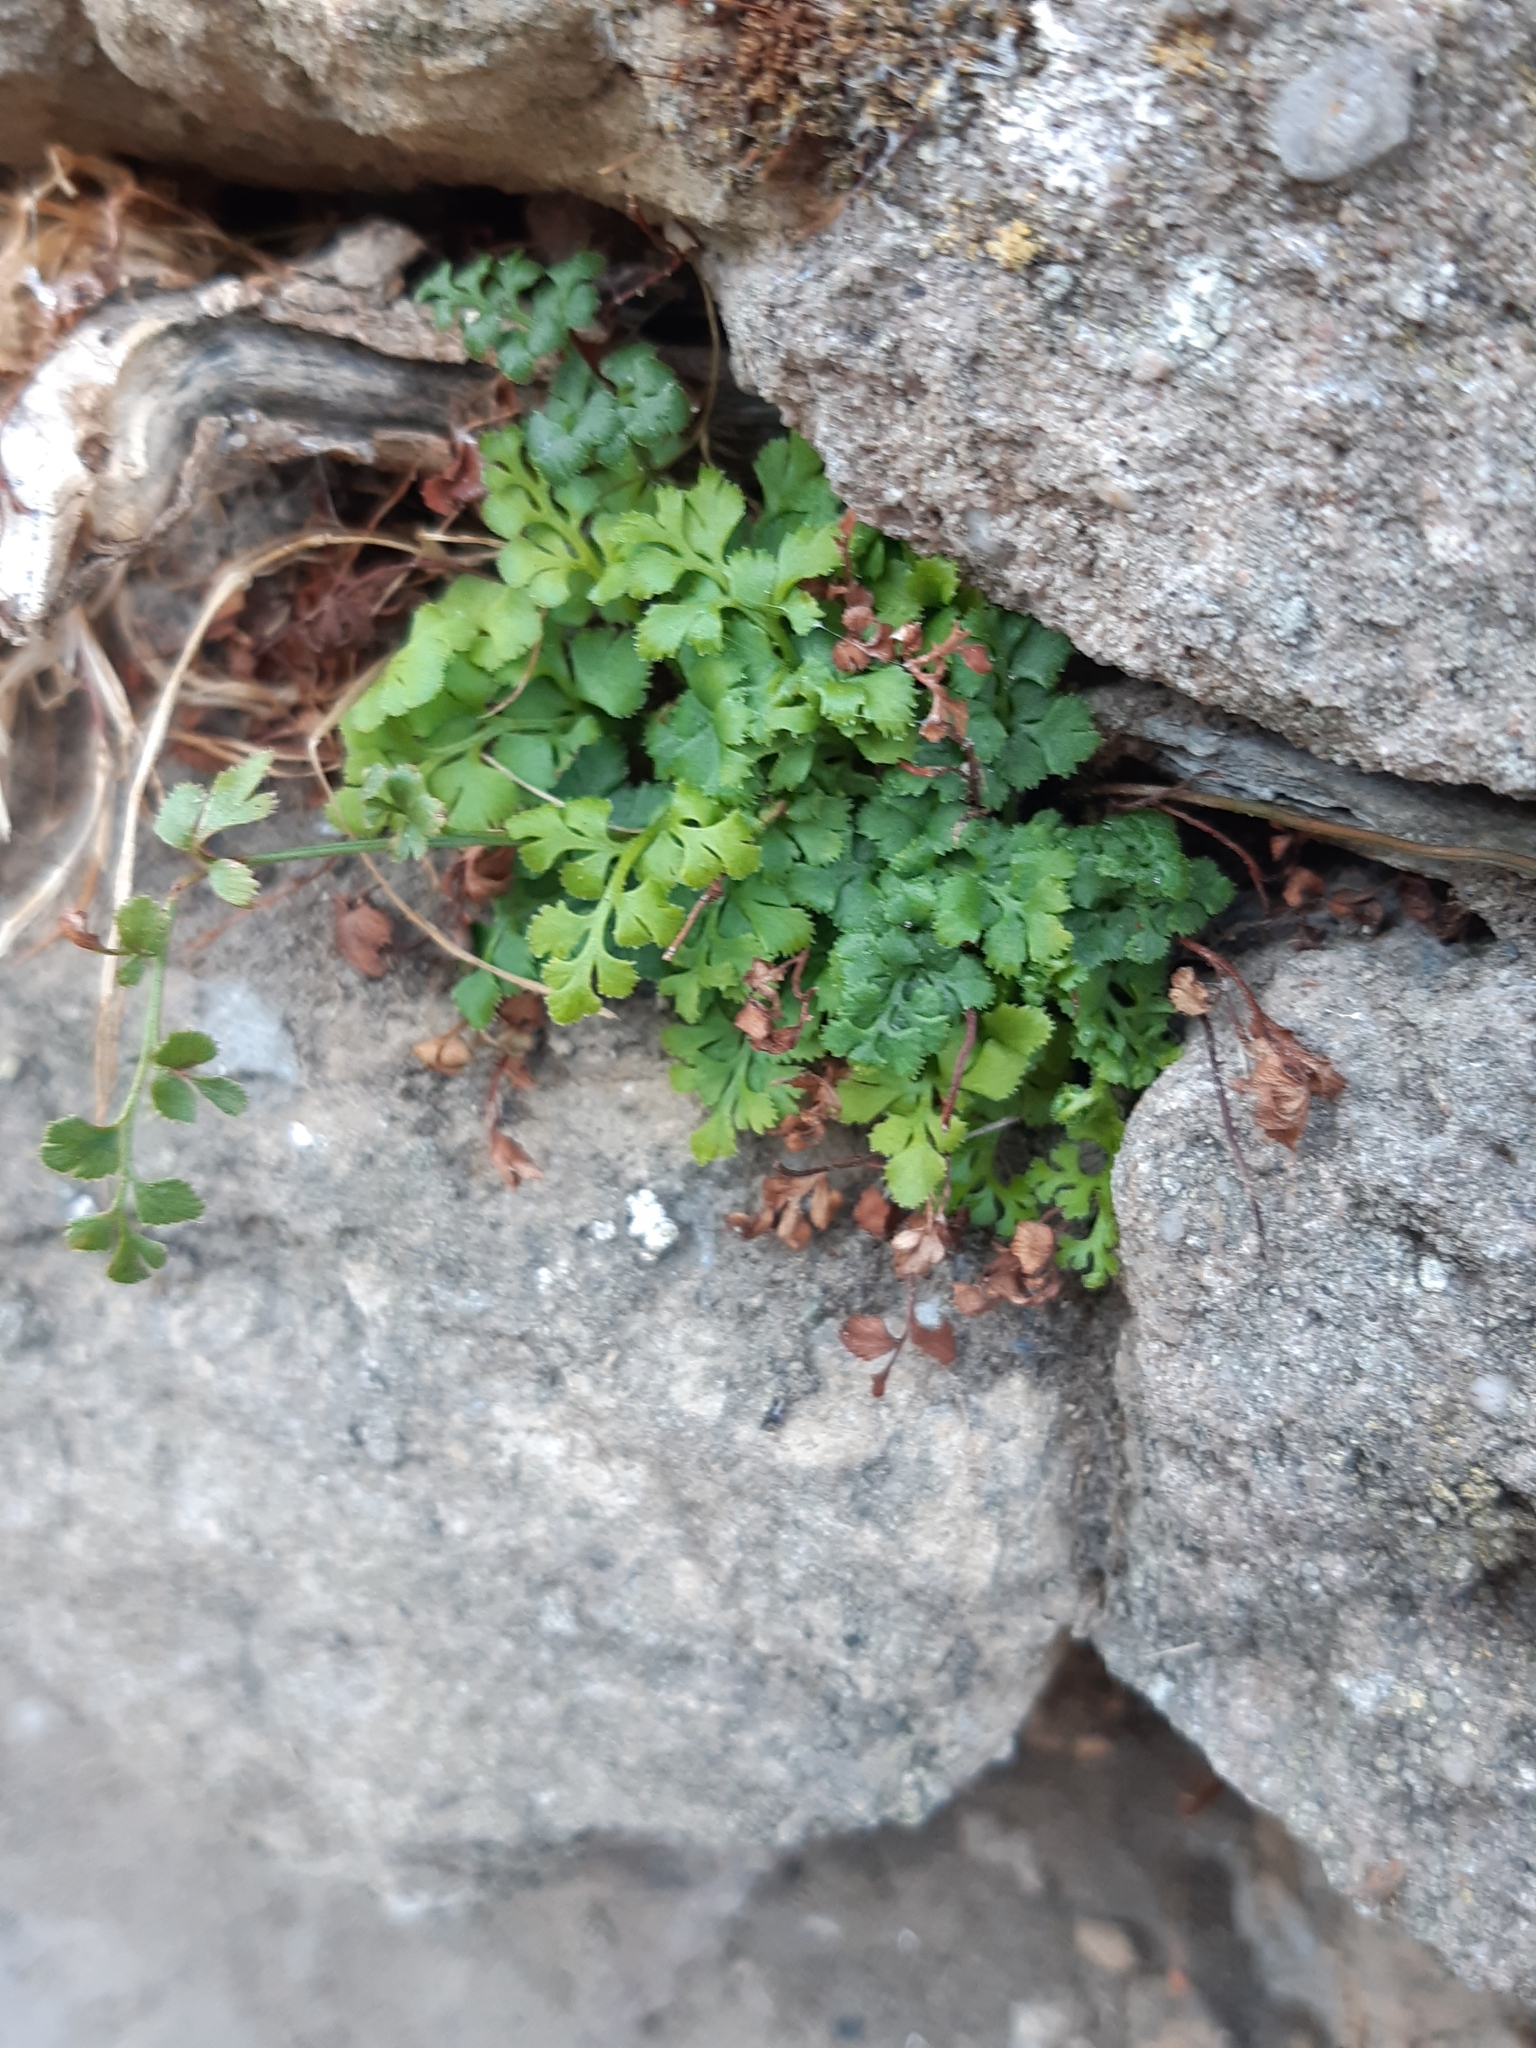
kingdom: Plantae
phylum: Tracheophyta
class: Polypodiopsida
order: Polypodiales
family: Aspleniaceae
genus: Asplenium
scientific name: Asplenium ruta-muraria
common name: Wall-rue
